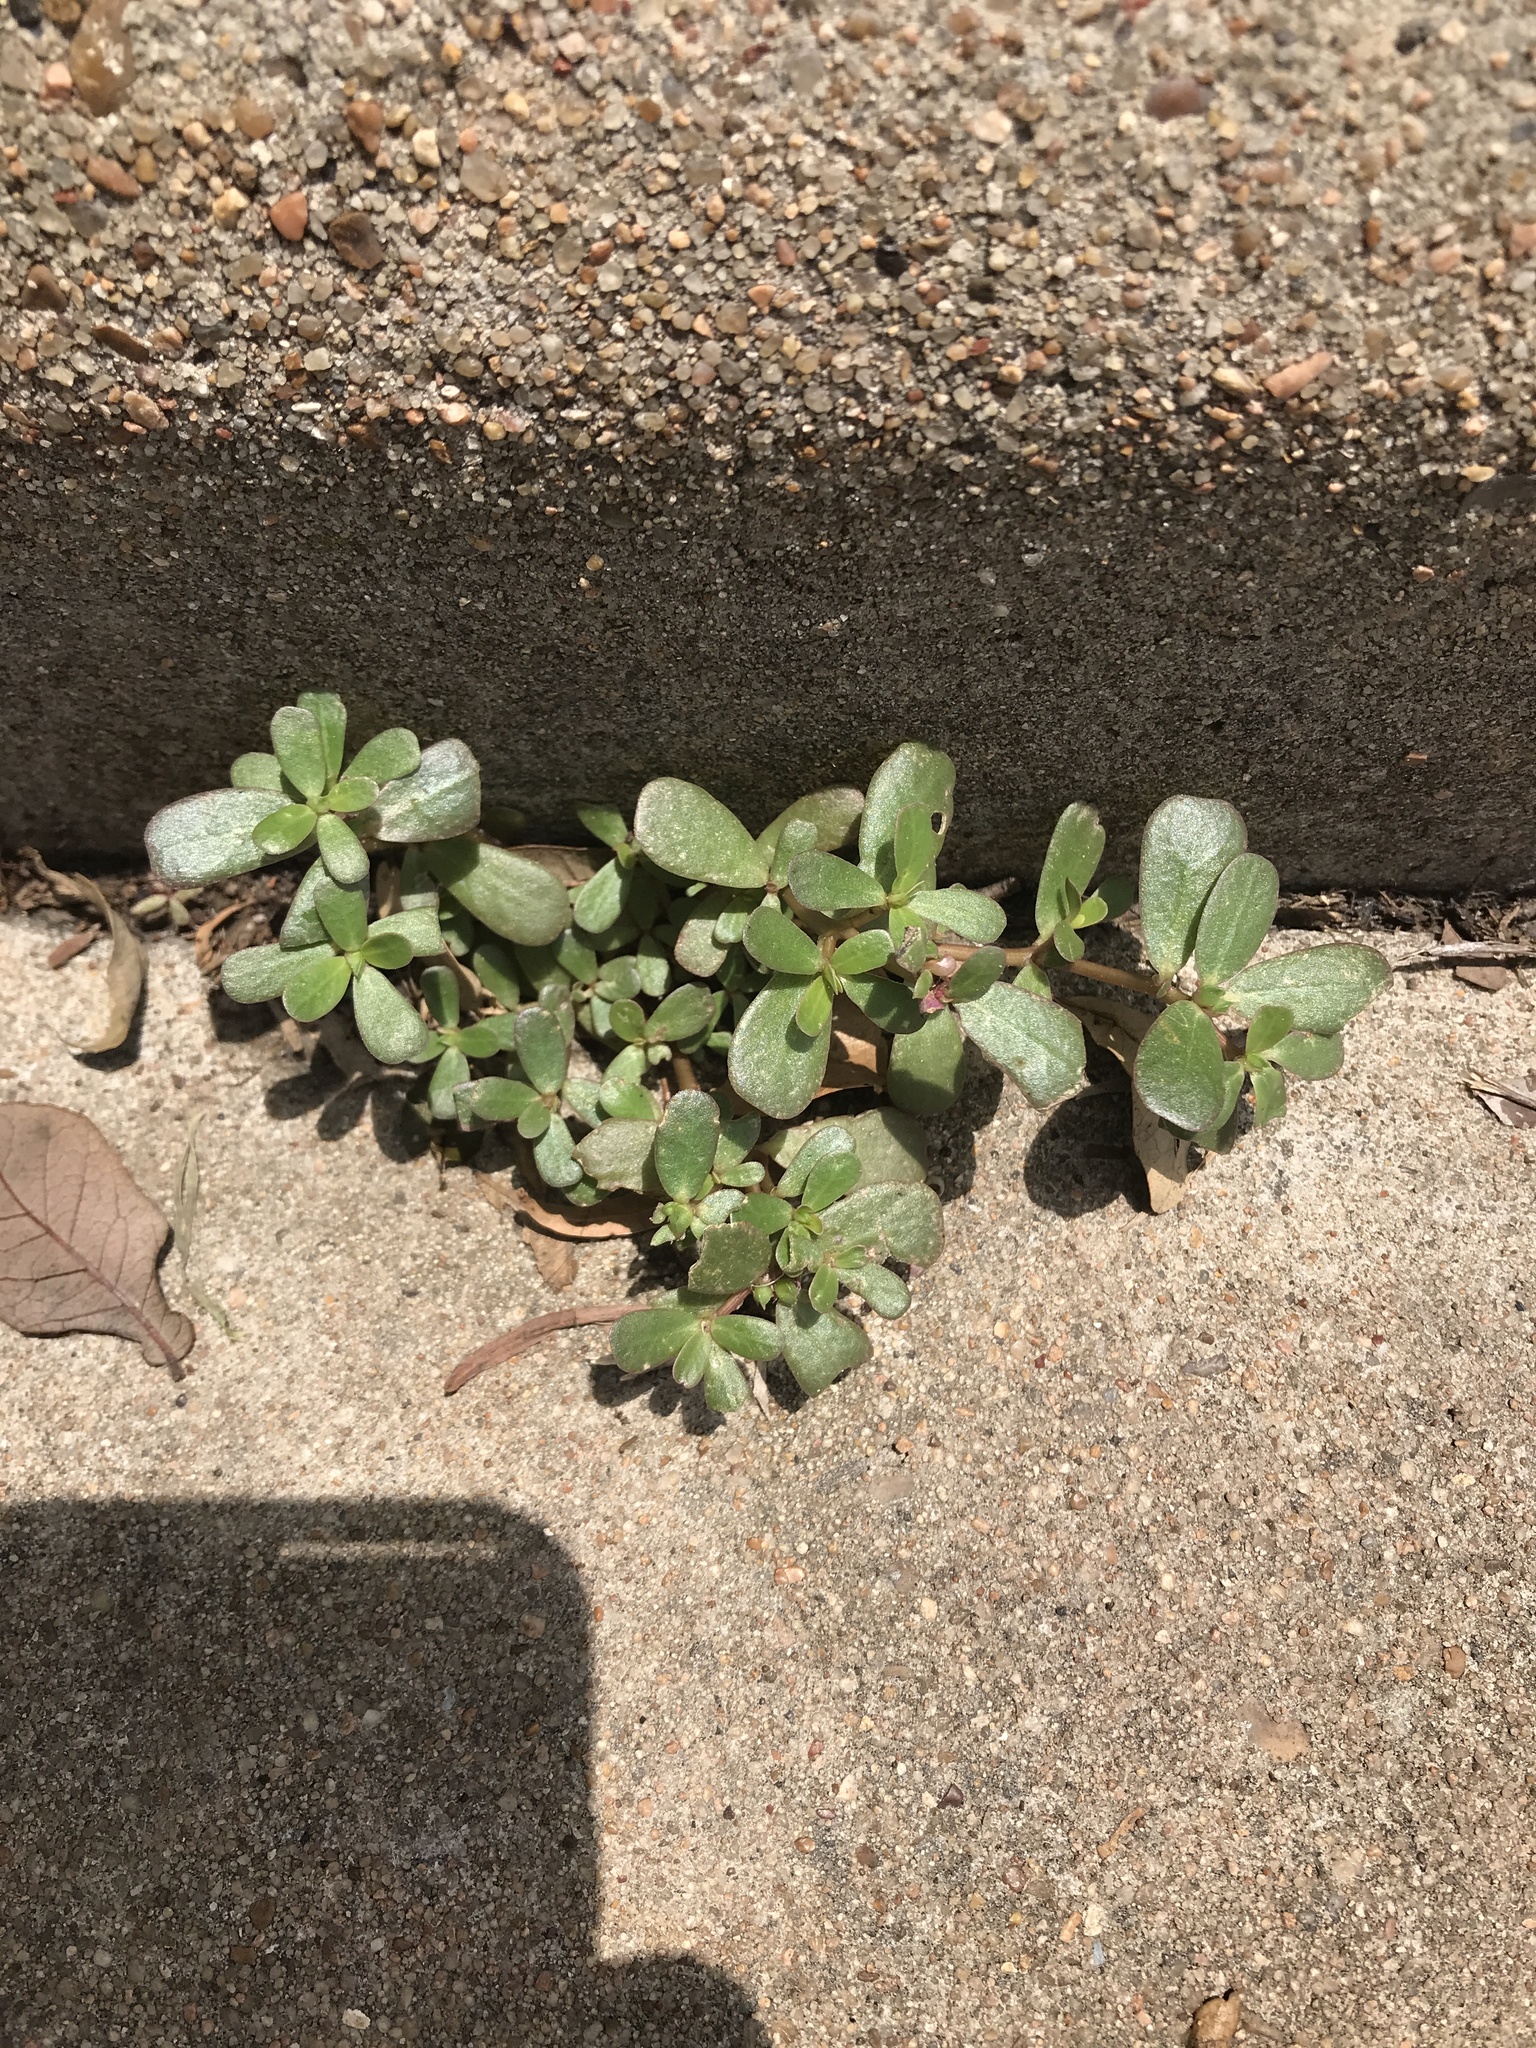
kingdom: Plantae
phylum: Tracheophyta
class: Magnoliopsida
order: Caryophyllales
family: Portulacaceae
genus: Portulaca
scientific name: Portulaca oleracea
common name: Common purslane
